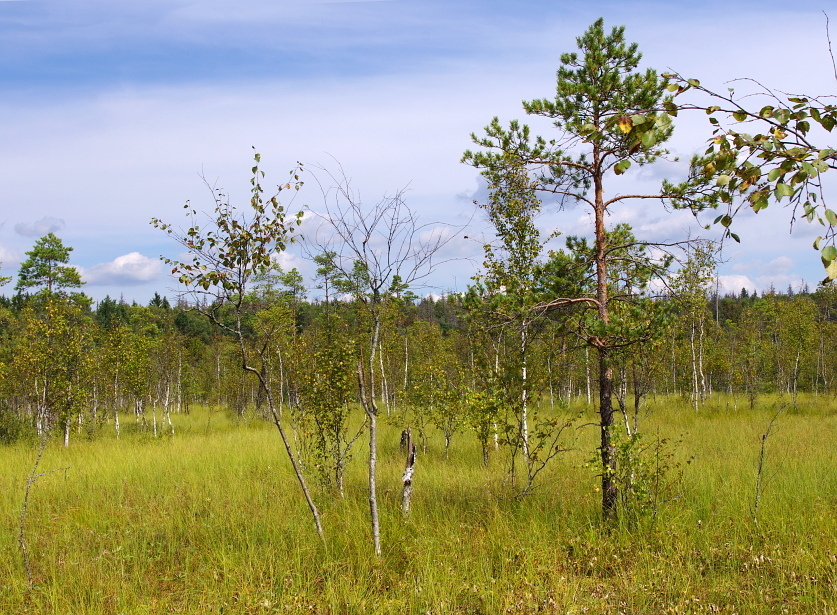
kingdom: Plantae
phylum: Tracheophyta
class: Pinopsida
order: Pinales
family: Pinaceae
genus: Pinus
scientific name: Pinus sylvestris
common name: Scots pine
